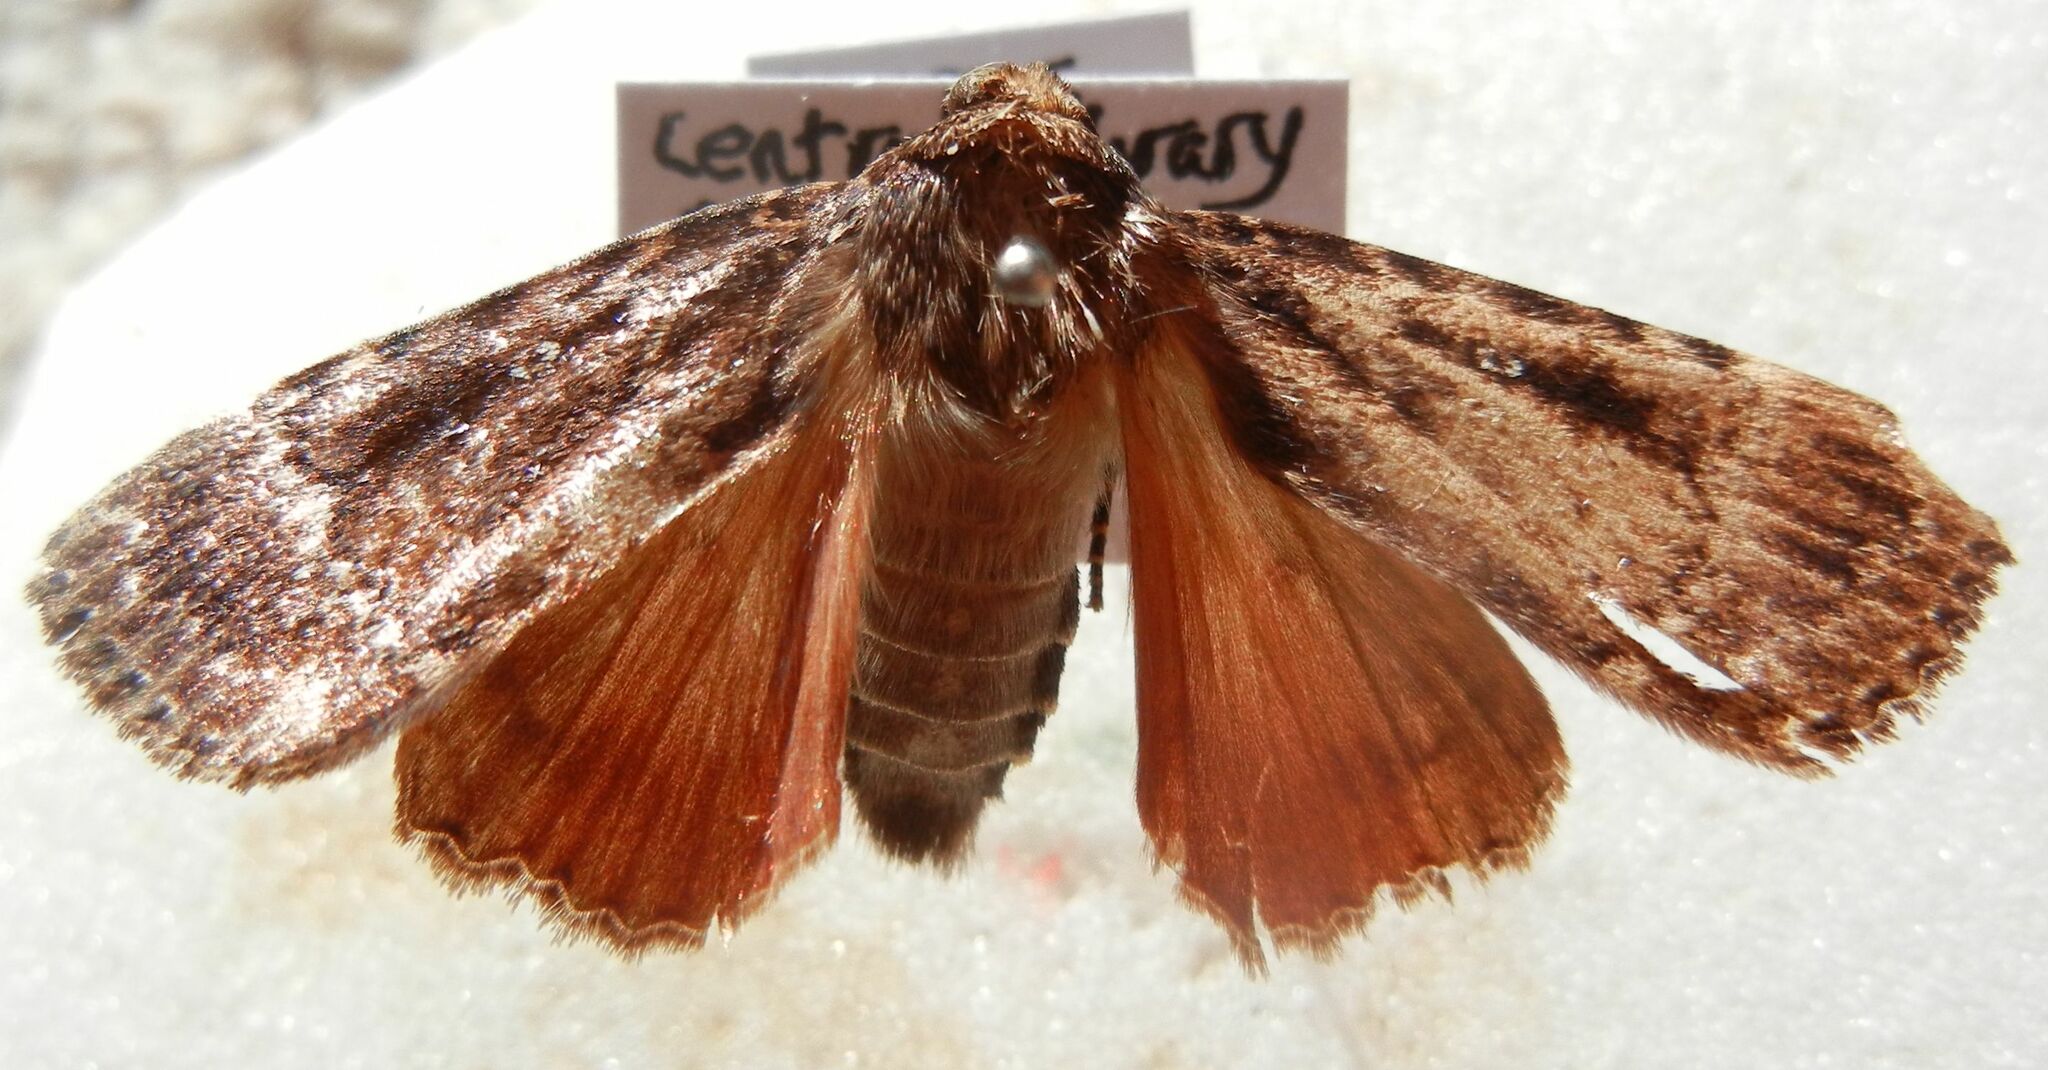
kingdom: Animalia
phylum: Arthropoda
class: Insecta
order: Lepidoptera
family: Noctuidae
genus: Amphipyra
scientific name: Amphipyra pyramidea
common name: Copper underwing
